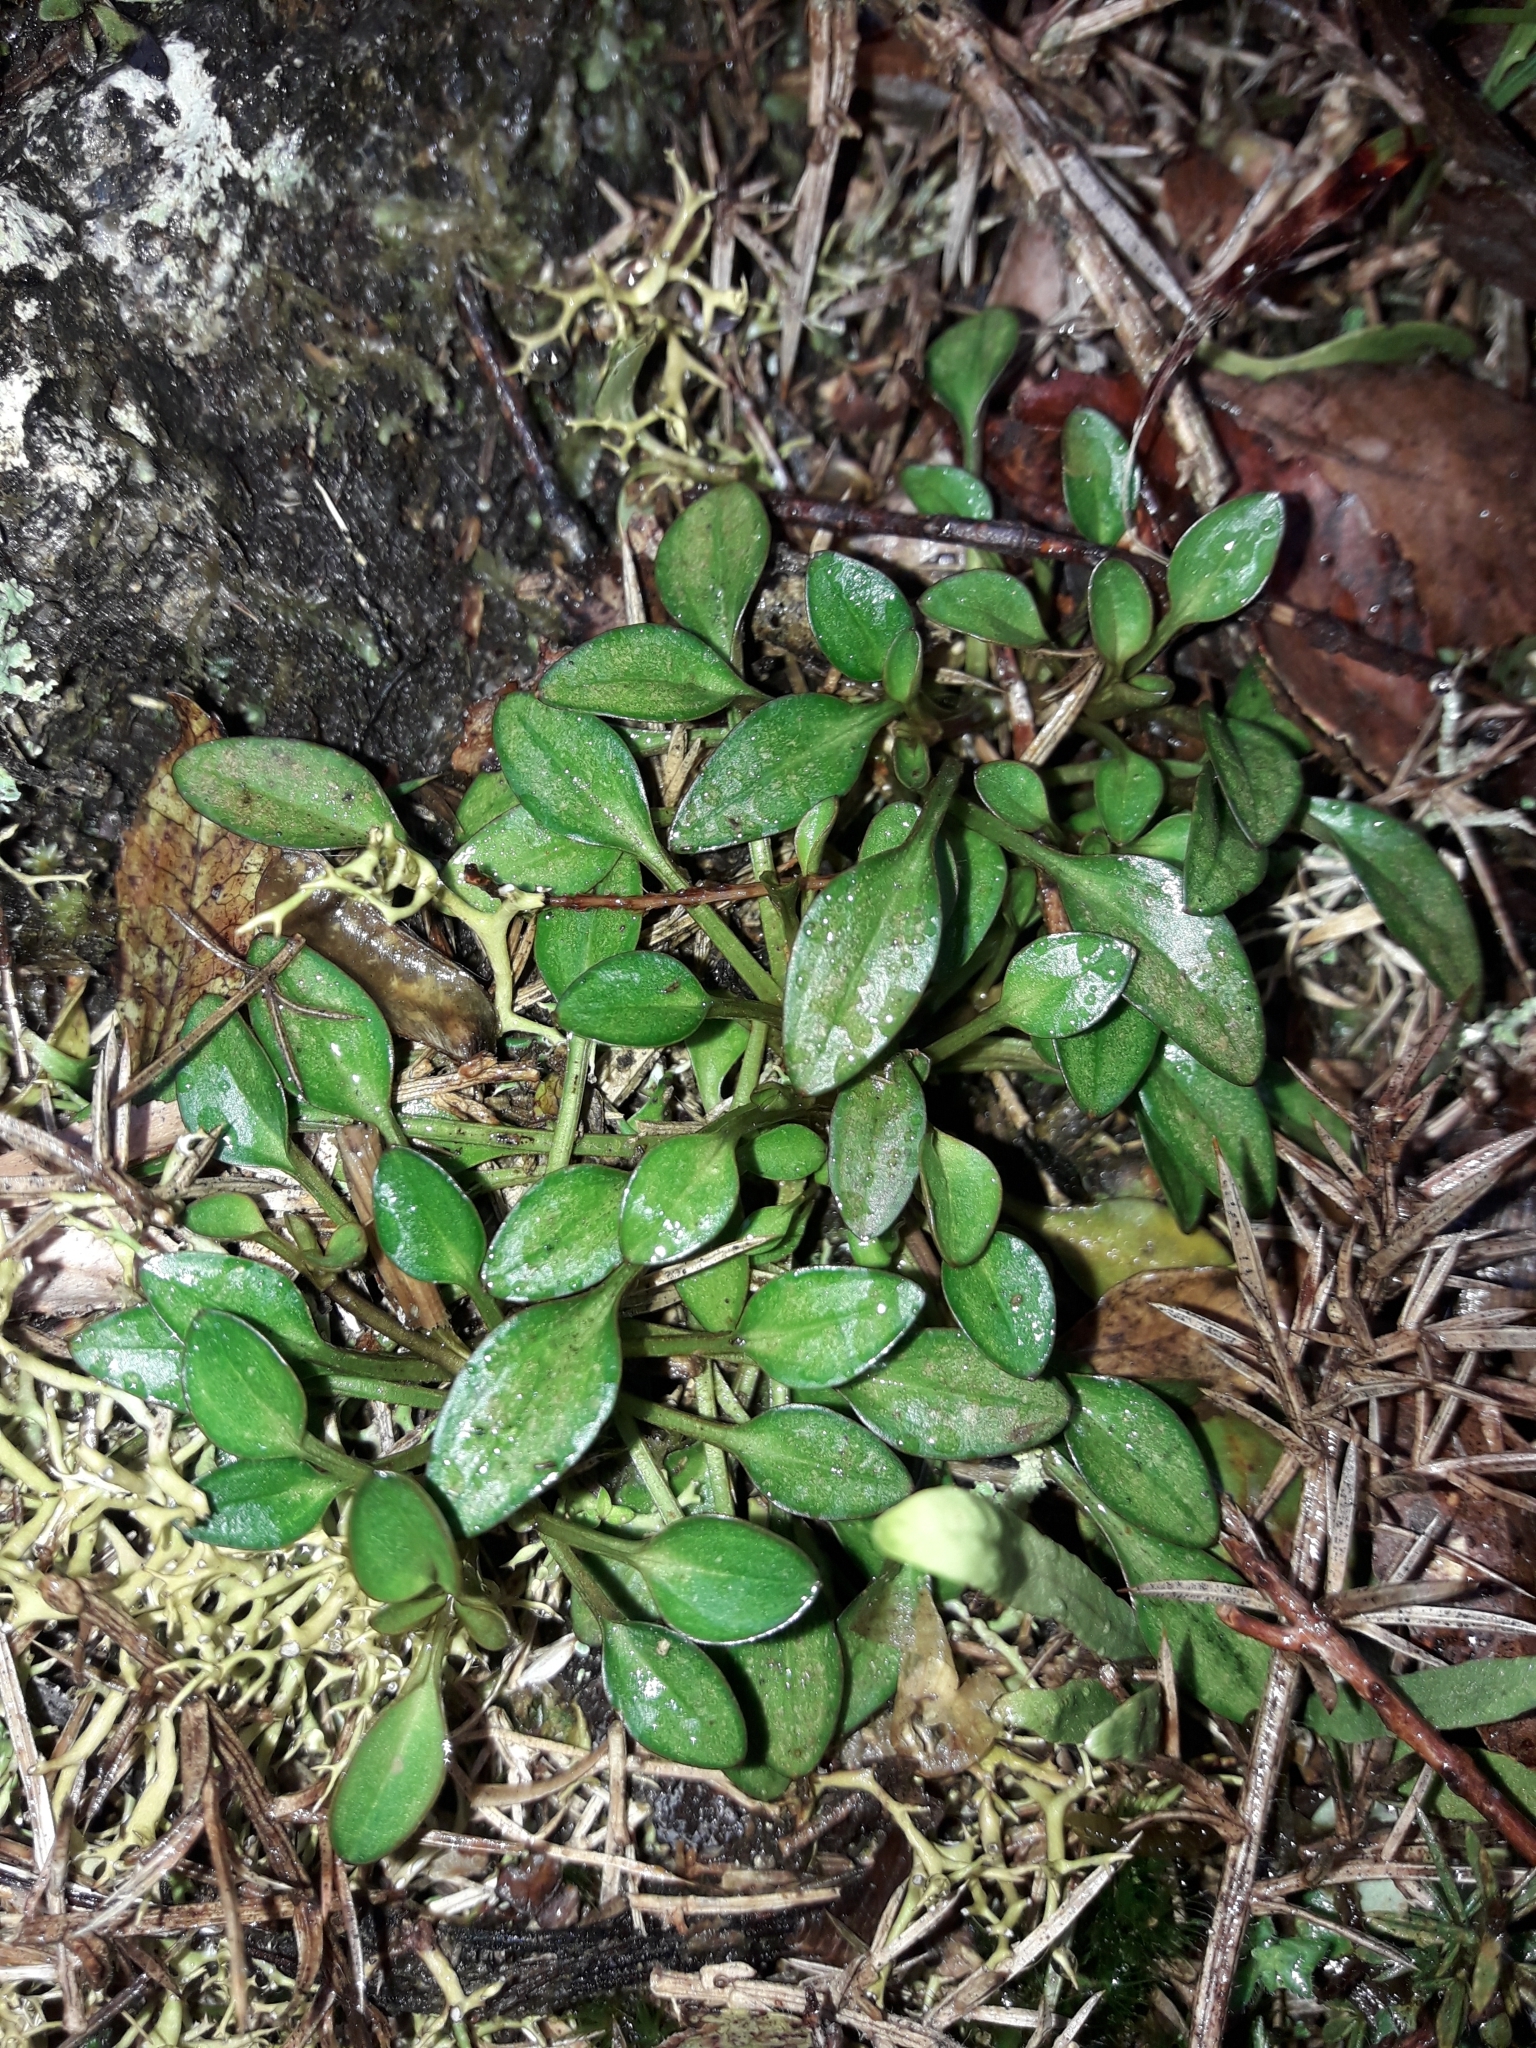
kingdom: Plantae
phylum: Tracheophyta
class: Magnoliopsida
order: Gentianales
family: Gentianaceae
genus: Gentianella
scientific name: Gentianella grisebachii
